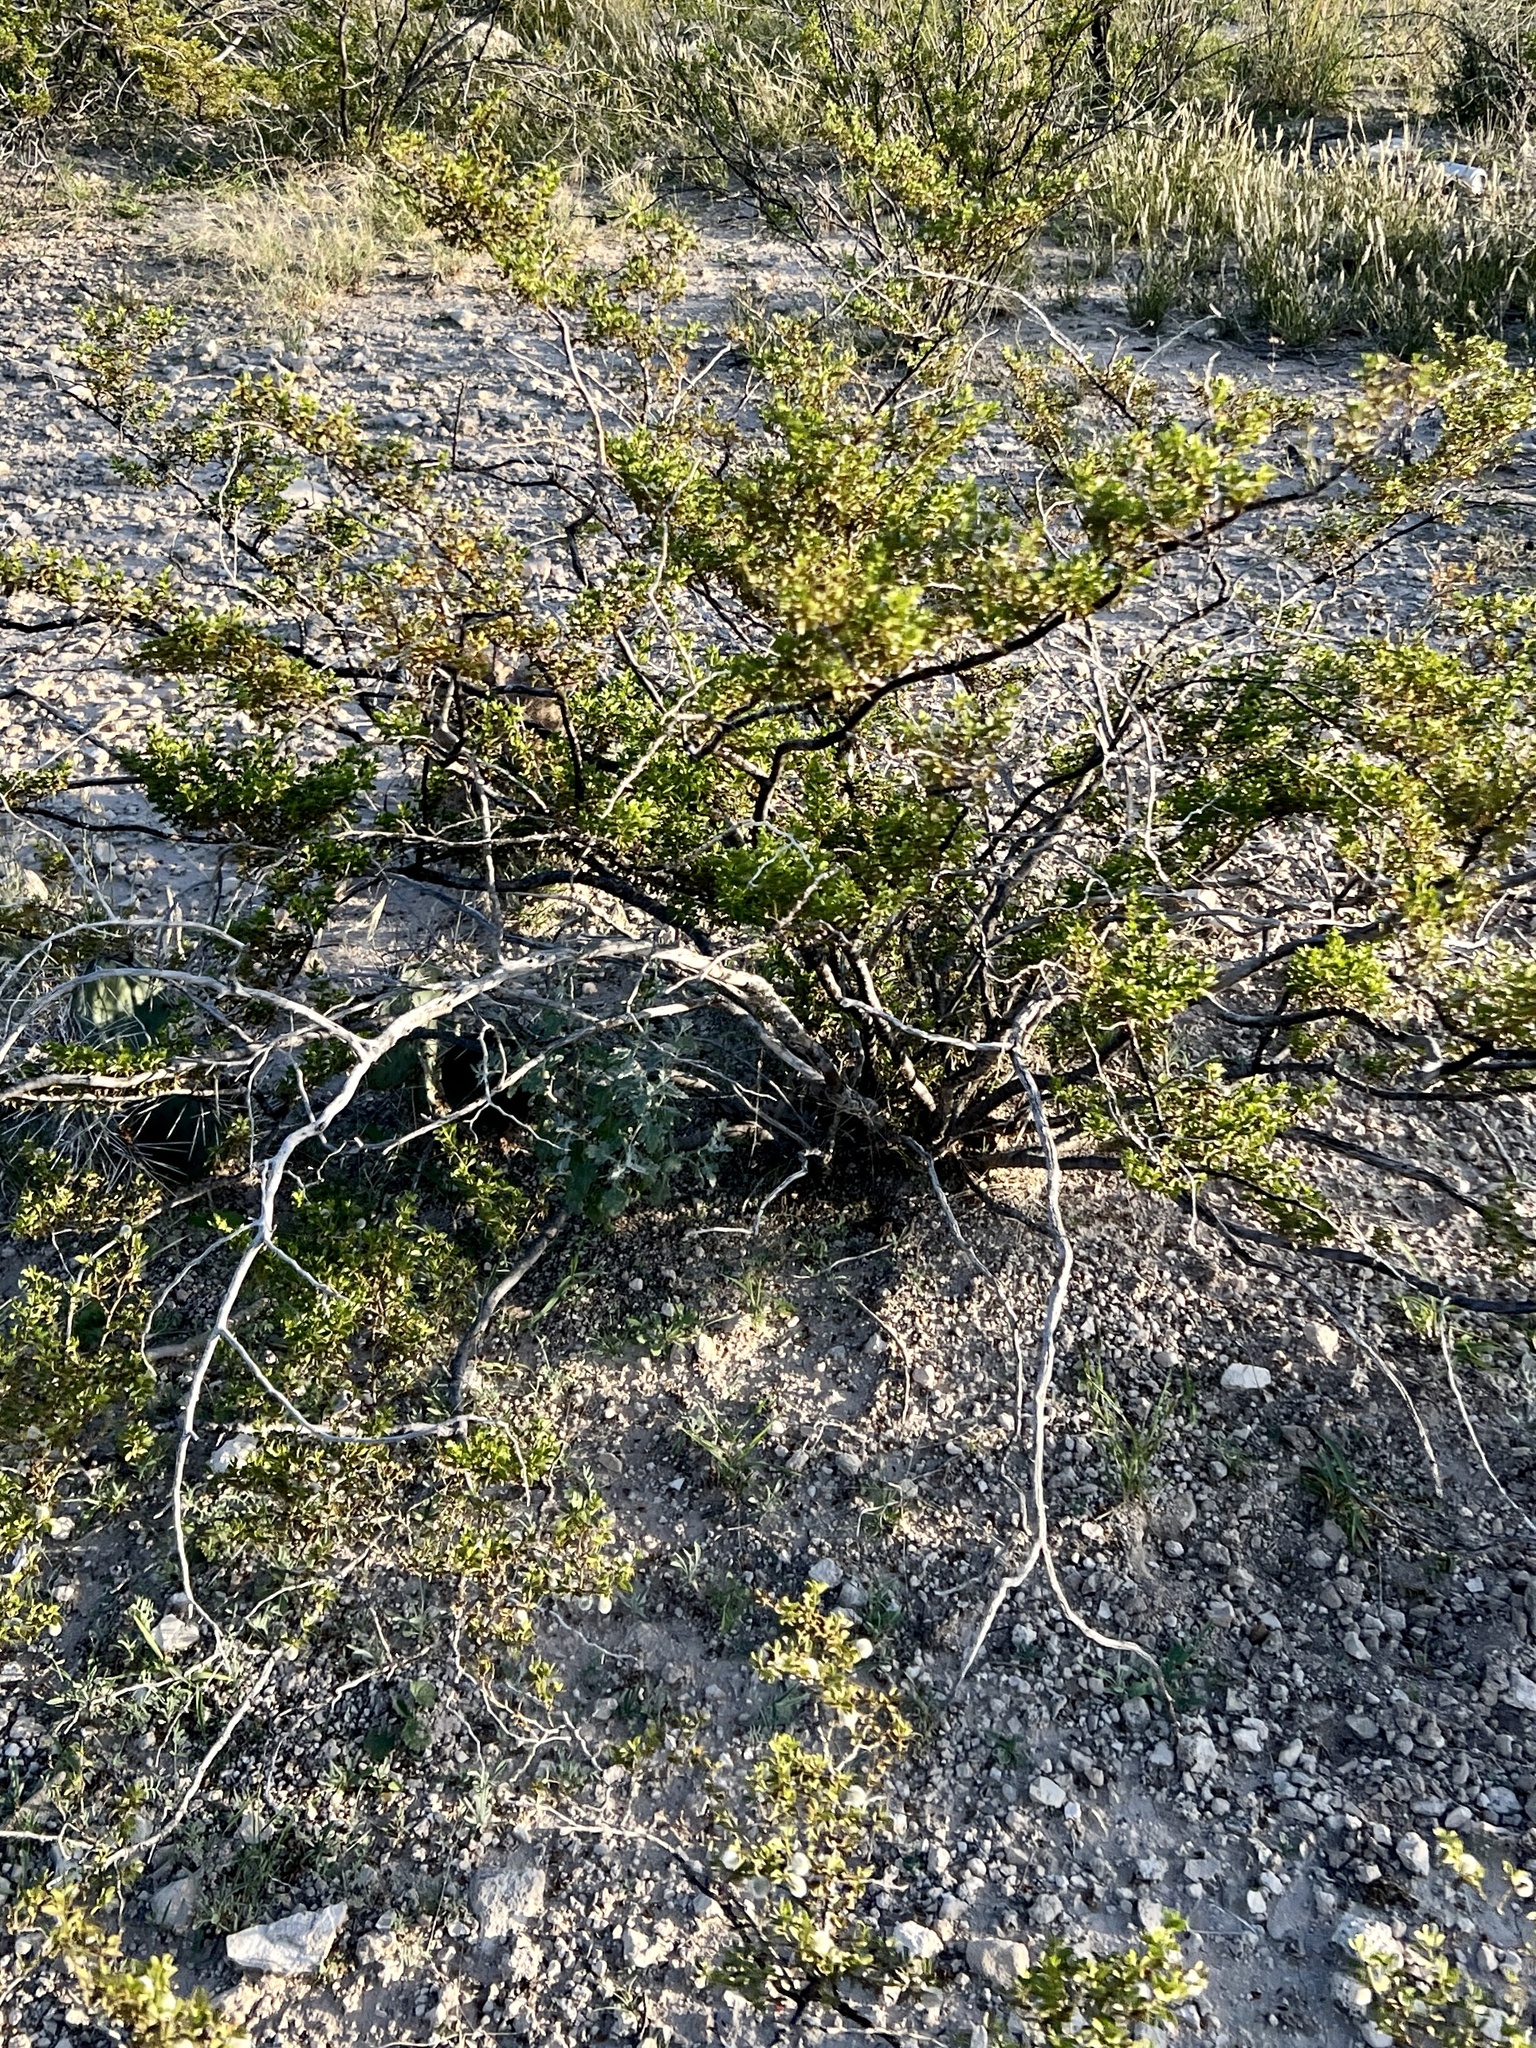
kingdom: Plantae
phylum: Tracheophyta
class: Magnoliopsida
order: Zygophyllales
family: Zygophyllaceae
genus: Larrea
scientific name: Larrea tridentata
